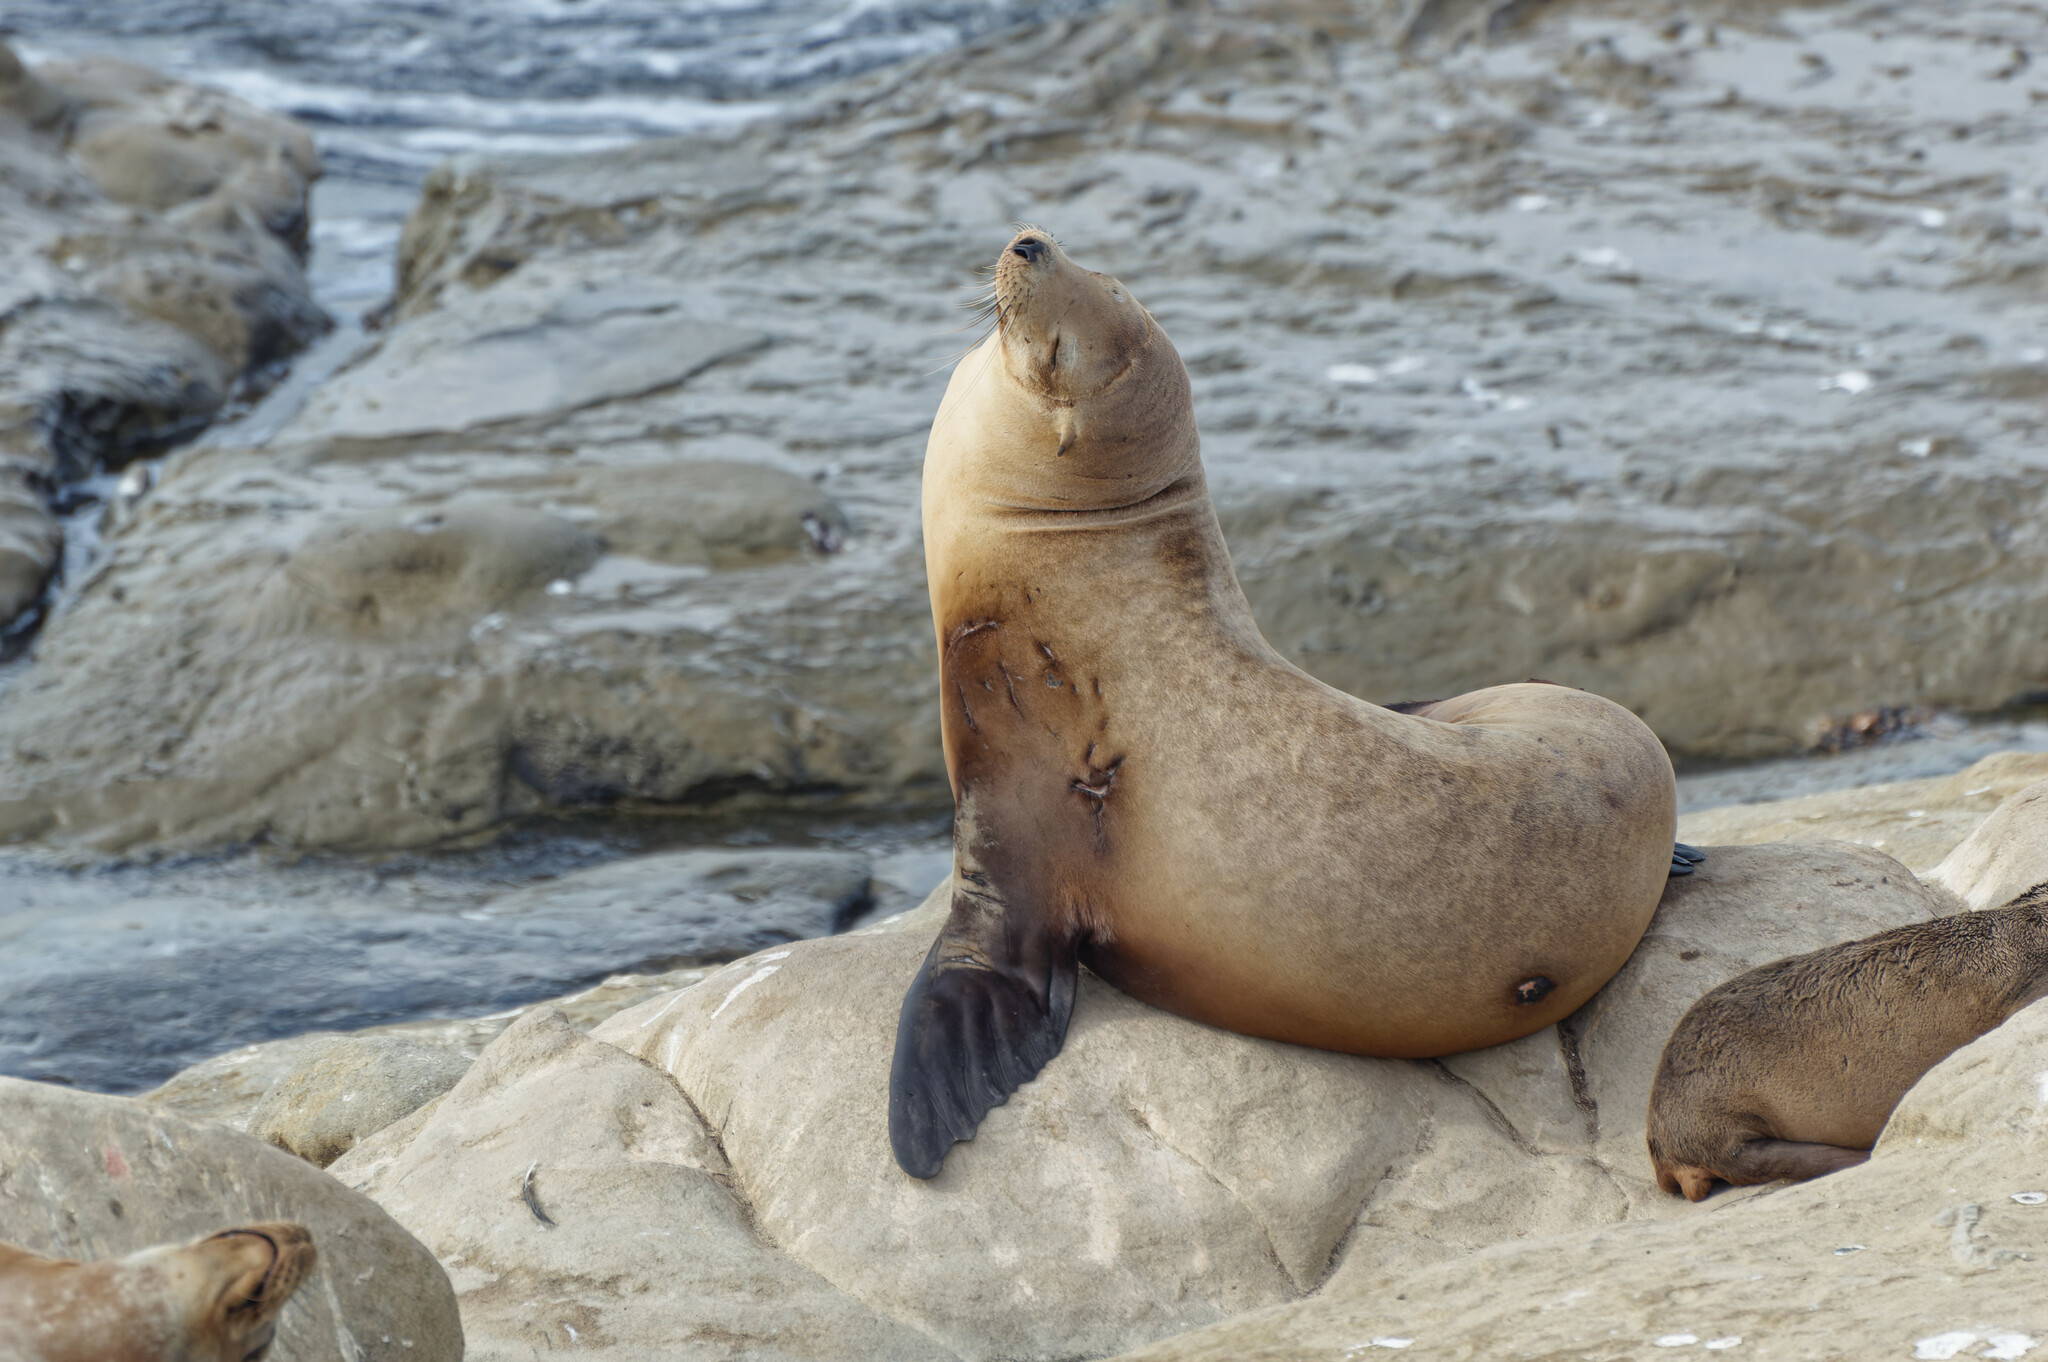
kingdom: Animalia
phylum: Chordata
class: Mammalia
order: Carnivora
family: Otariidae
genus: Zalophus
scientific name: Zalophus californianus
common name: California sea lion
